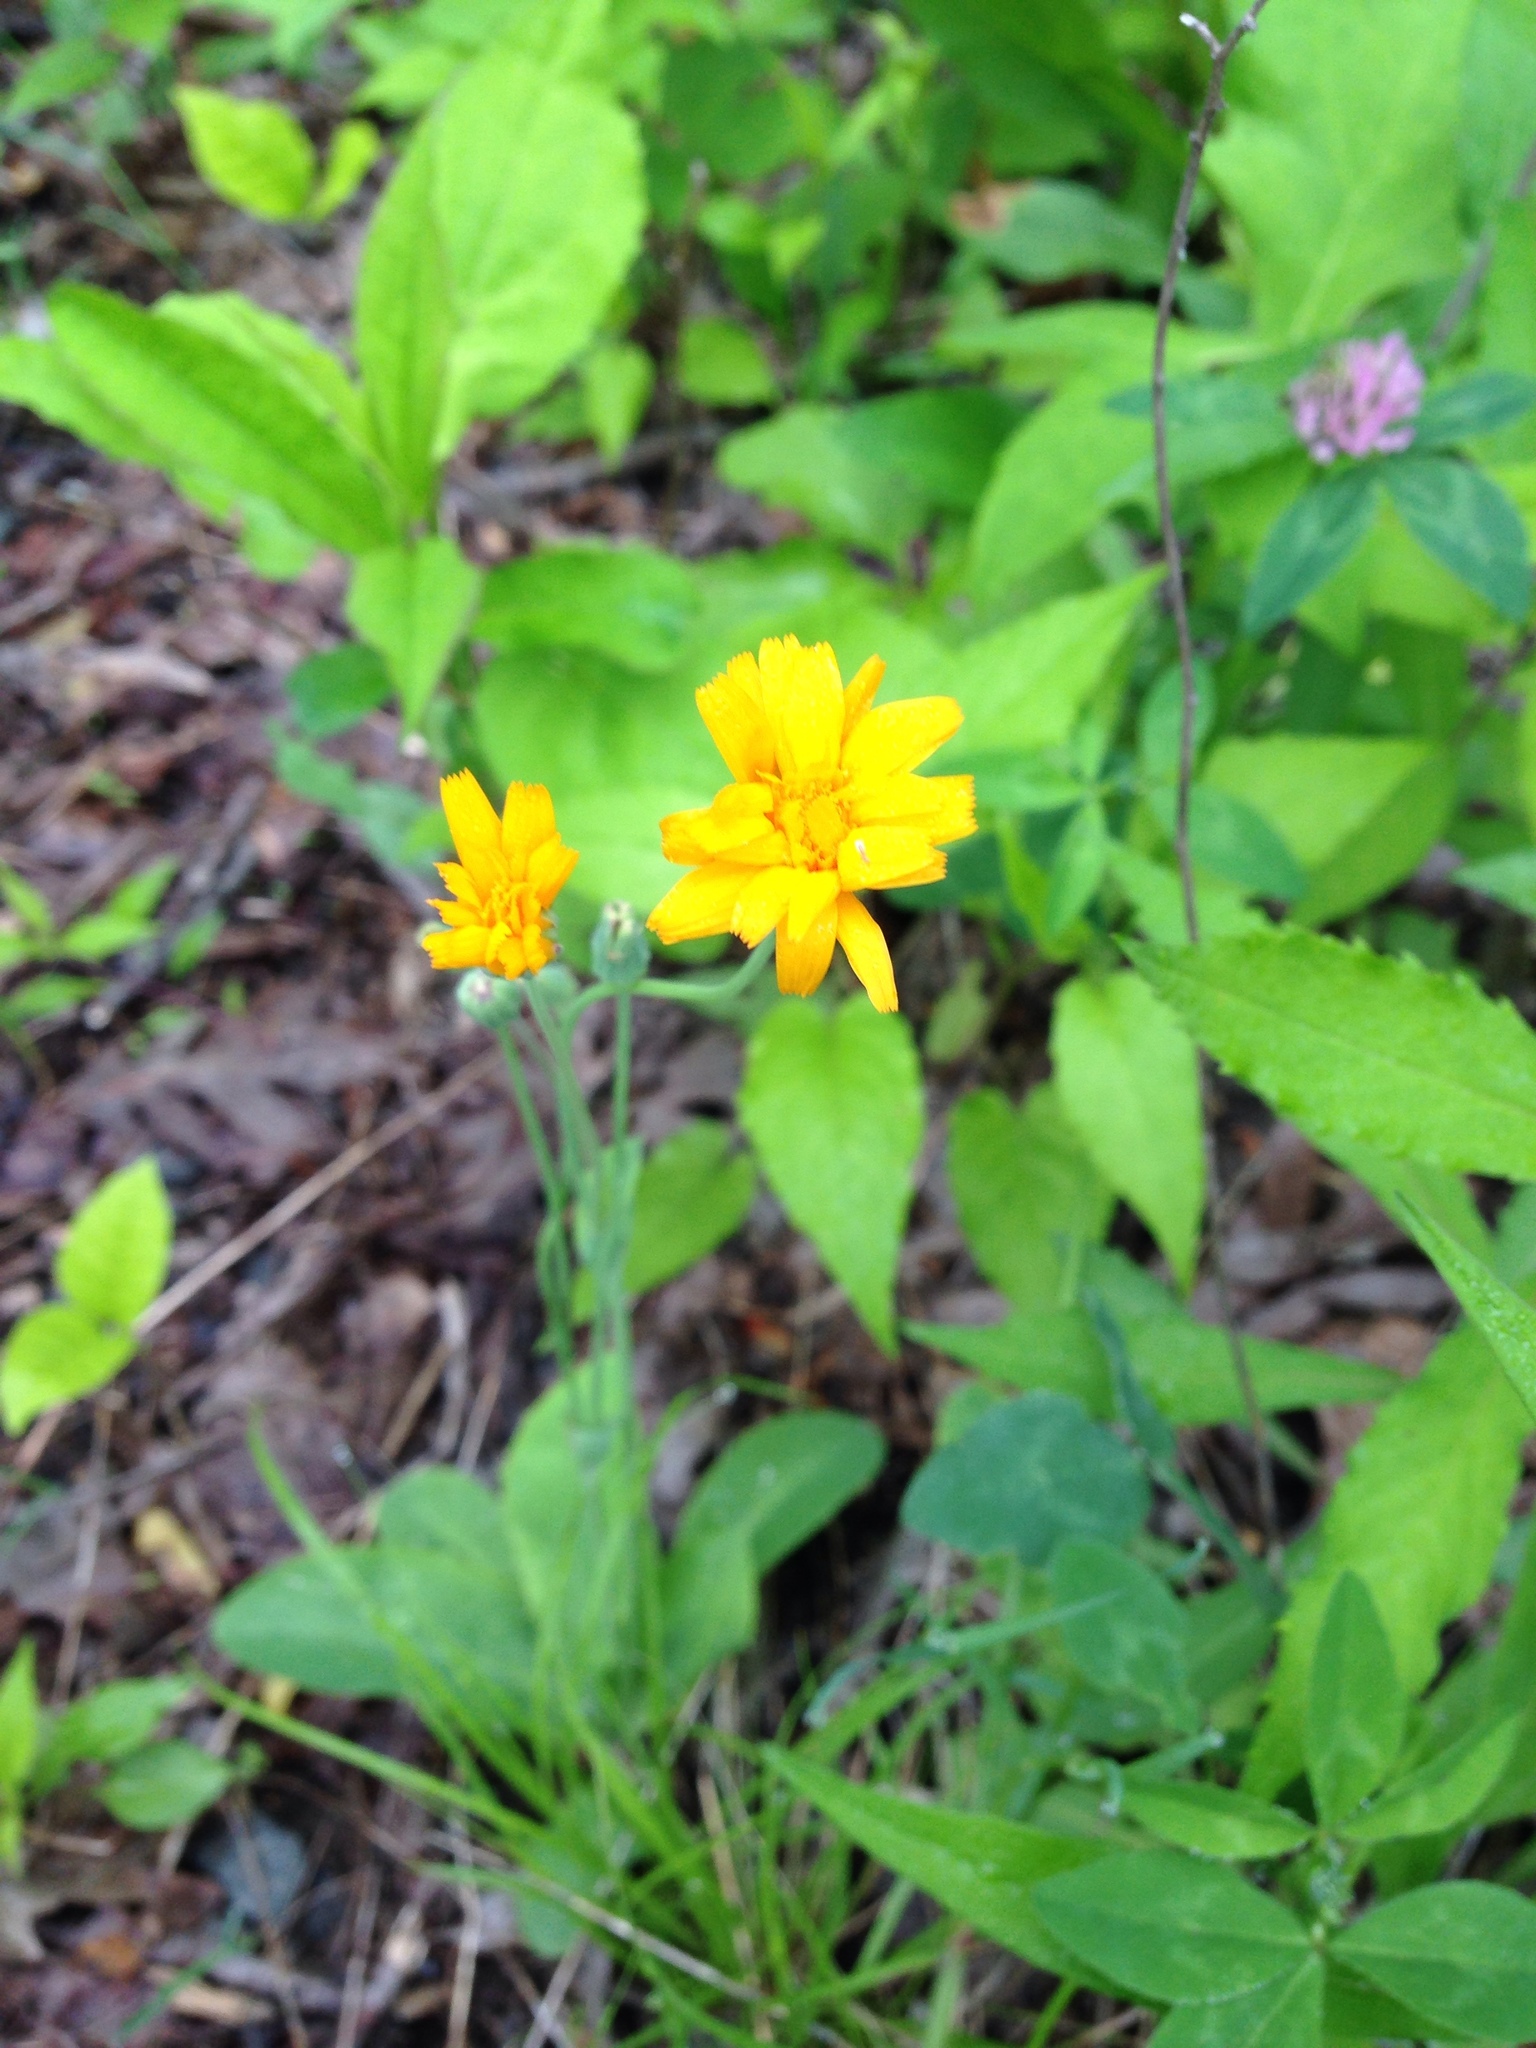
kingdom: Plantae
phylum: Tracheophyta
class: Magnoliopsida
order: Asterales
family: Asteraceae
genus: Krigia
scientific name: Krigia biflora
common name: Orange dwarf-dandelion
